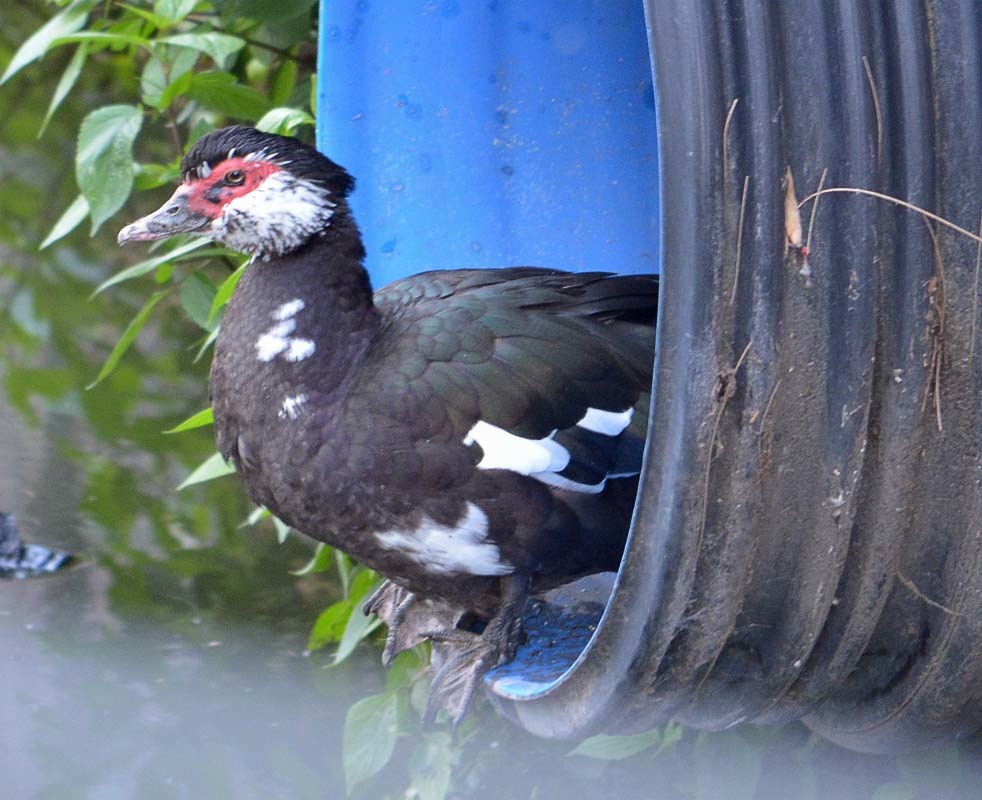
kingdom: Animalia
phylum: Chordata
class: Aves
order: Anseriformes
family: Anatidae
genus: Cairina
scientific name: Cairina moschata
